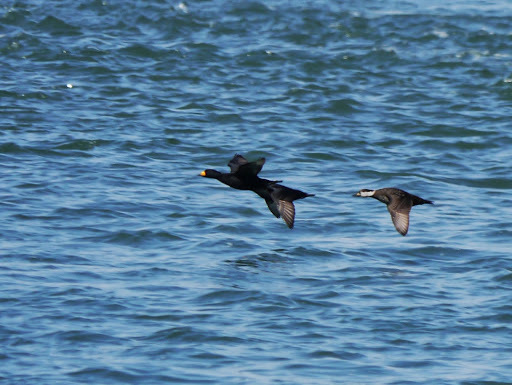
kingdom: Animalia
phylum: Chordata
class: Aves
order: Anseriformes
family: Anatidae
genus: Melanitta
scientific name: Melanitta americana
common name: Black scoter
